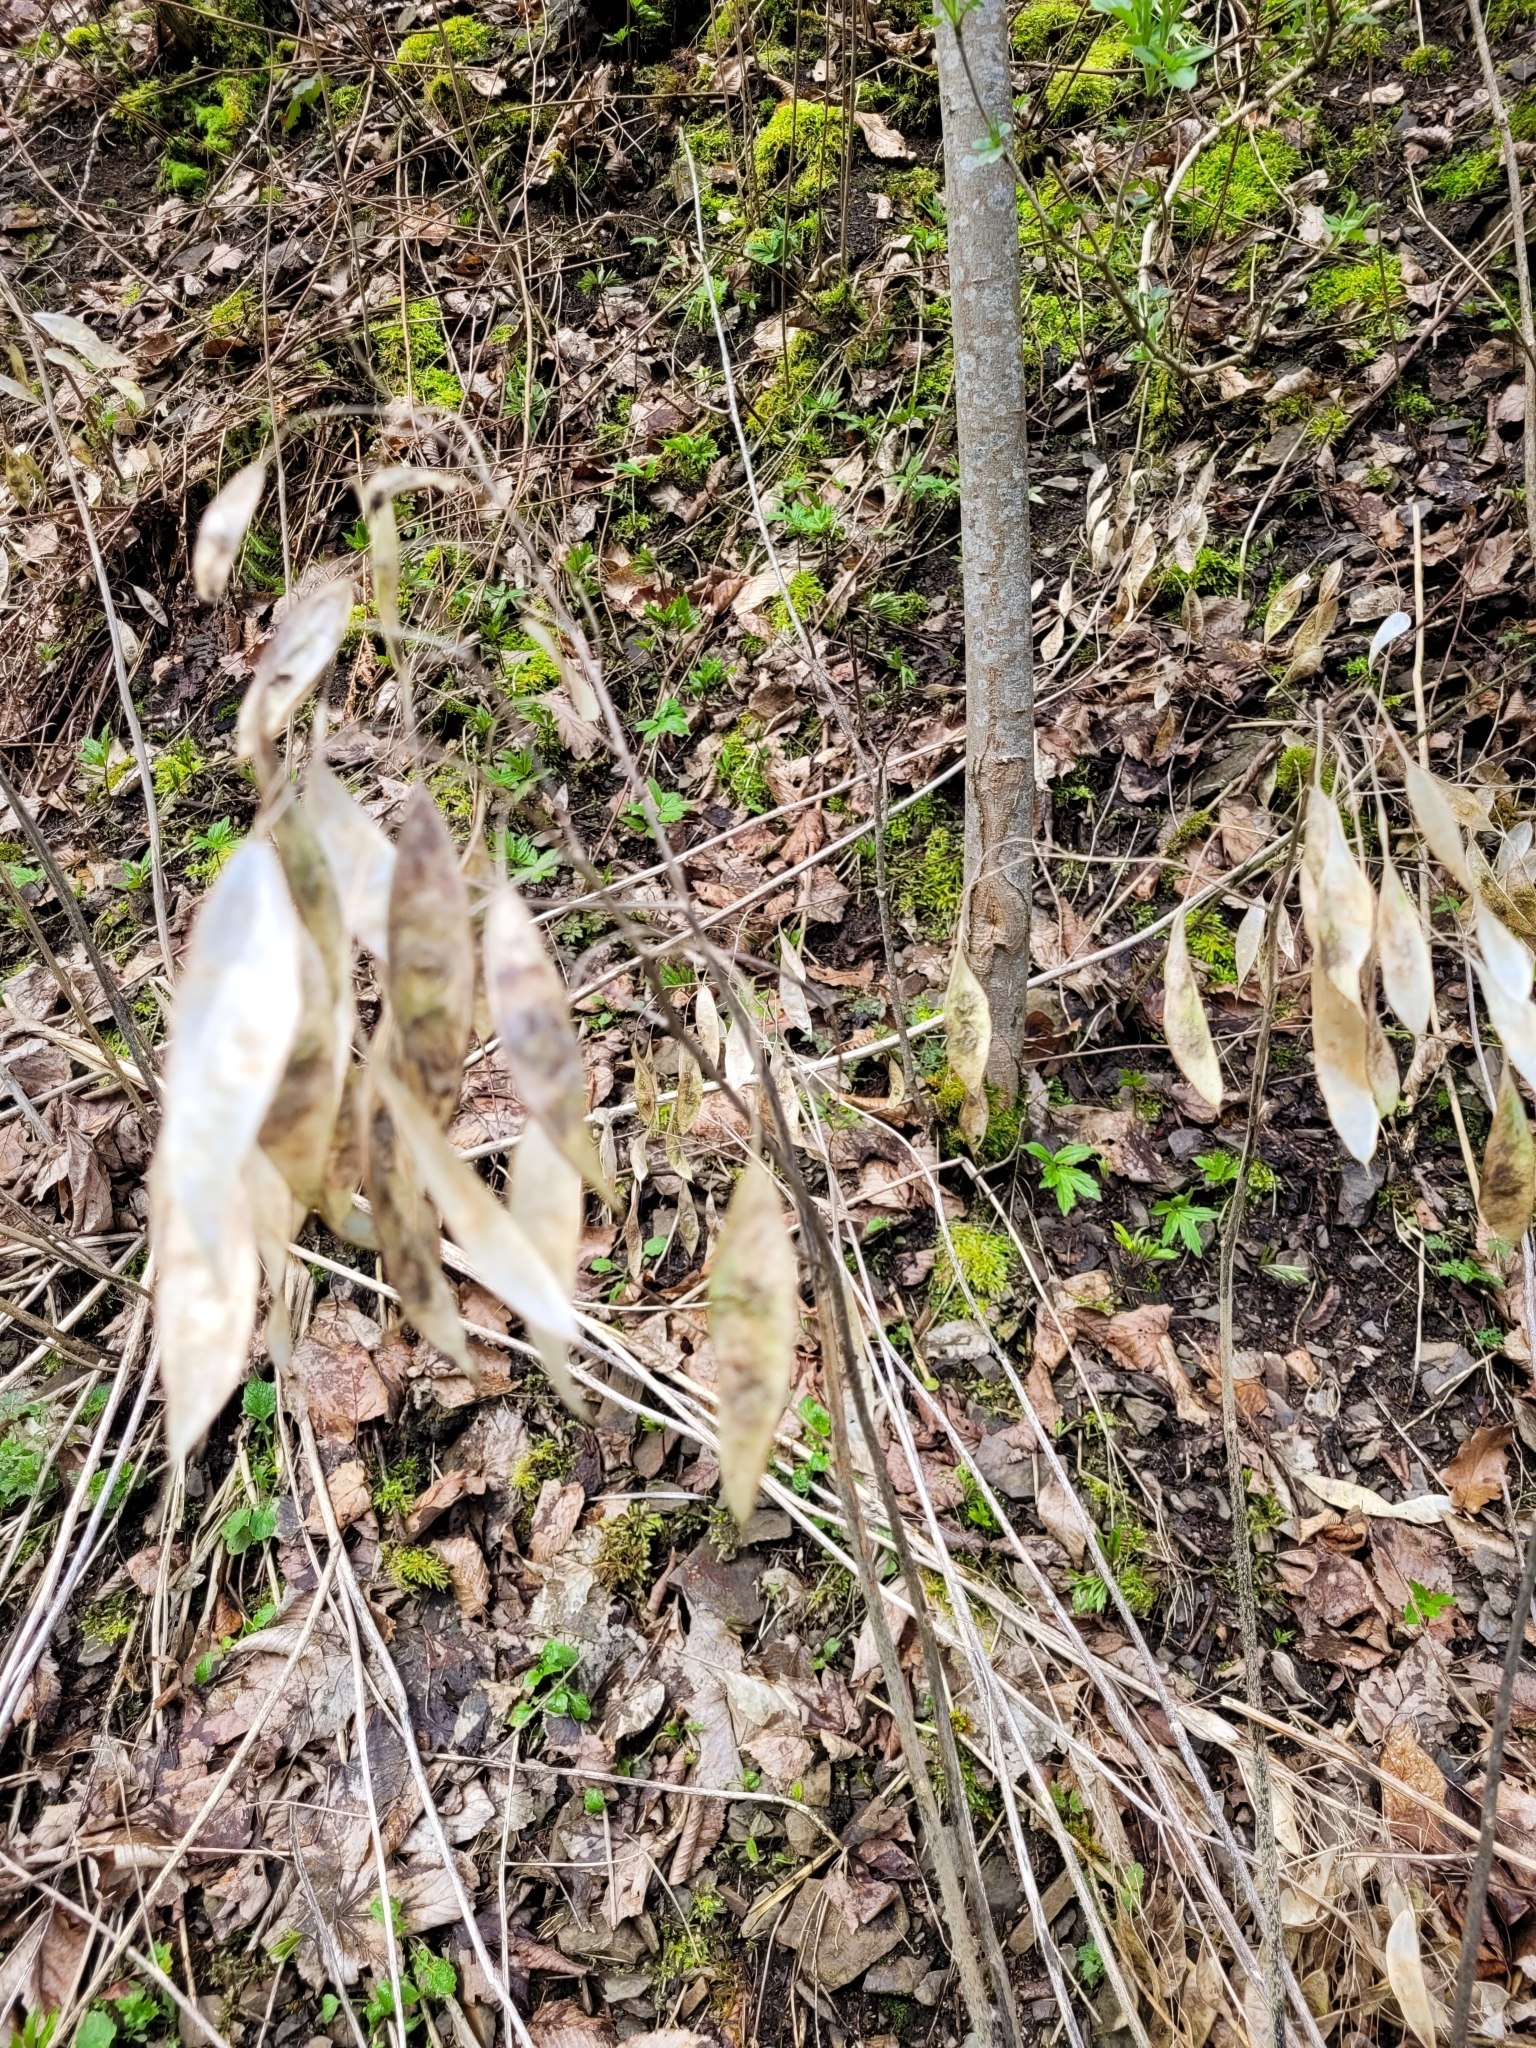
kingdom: Plantae
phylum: Tracheophyta
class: Magnoliopsida
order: Brassicales
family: Brassicaceae
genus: Lunaria
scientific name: Lunaria rediviva
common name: Perennial honesty
